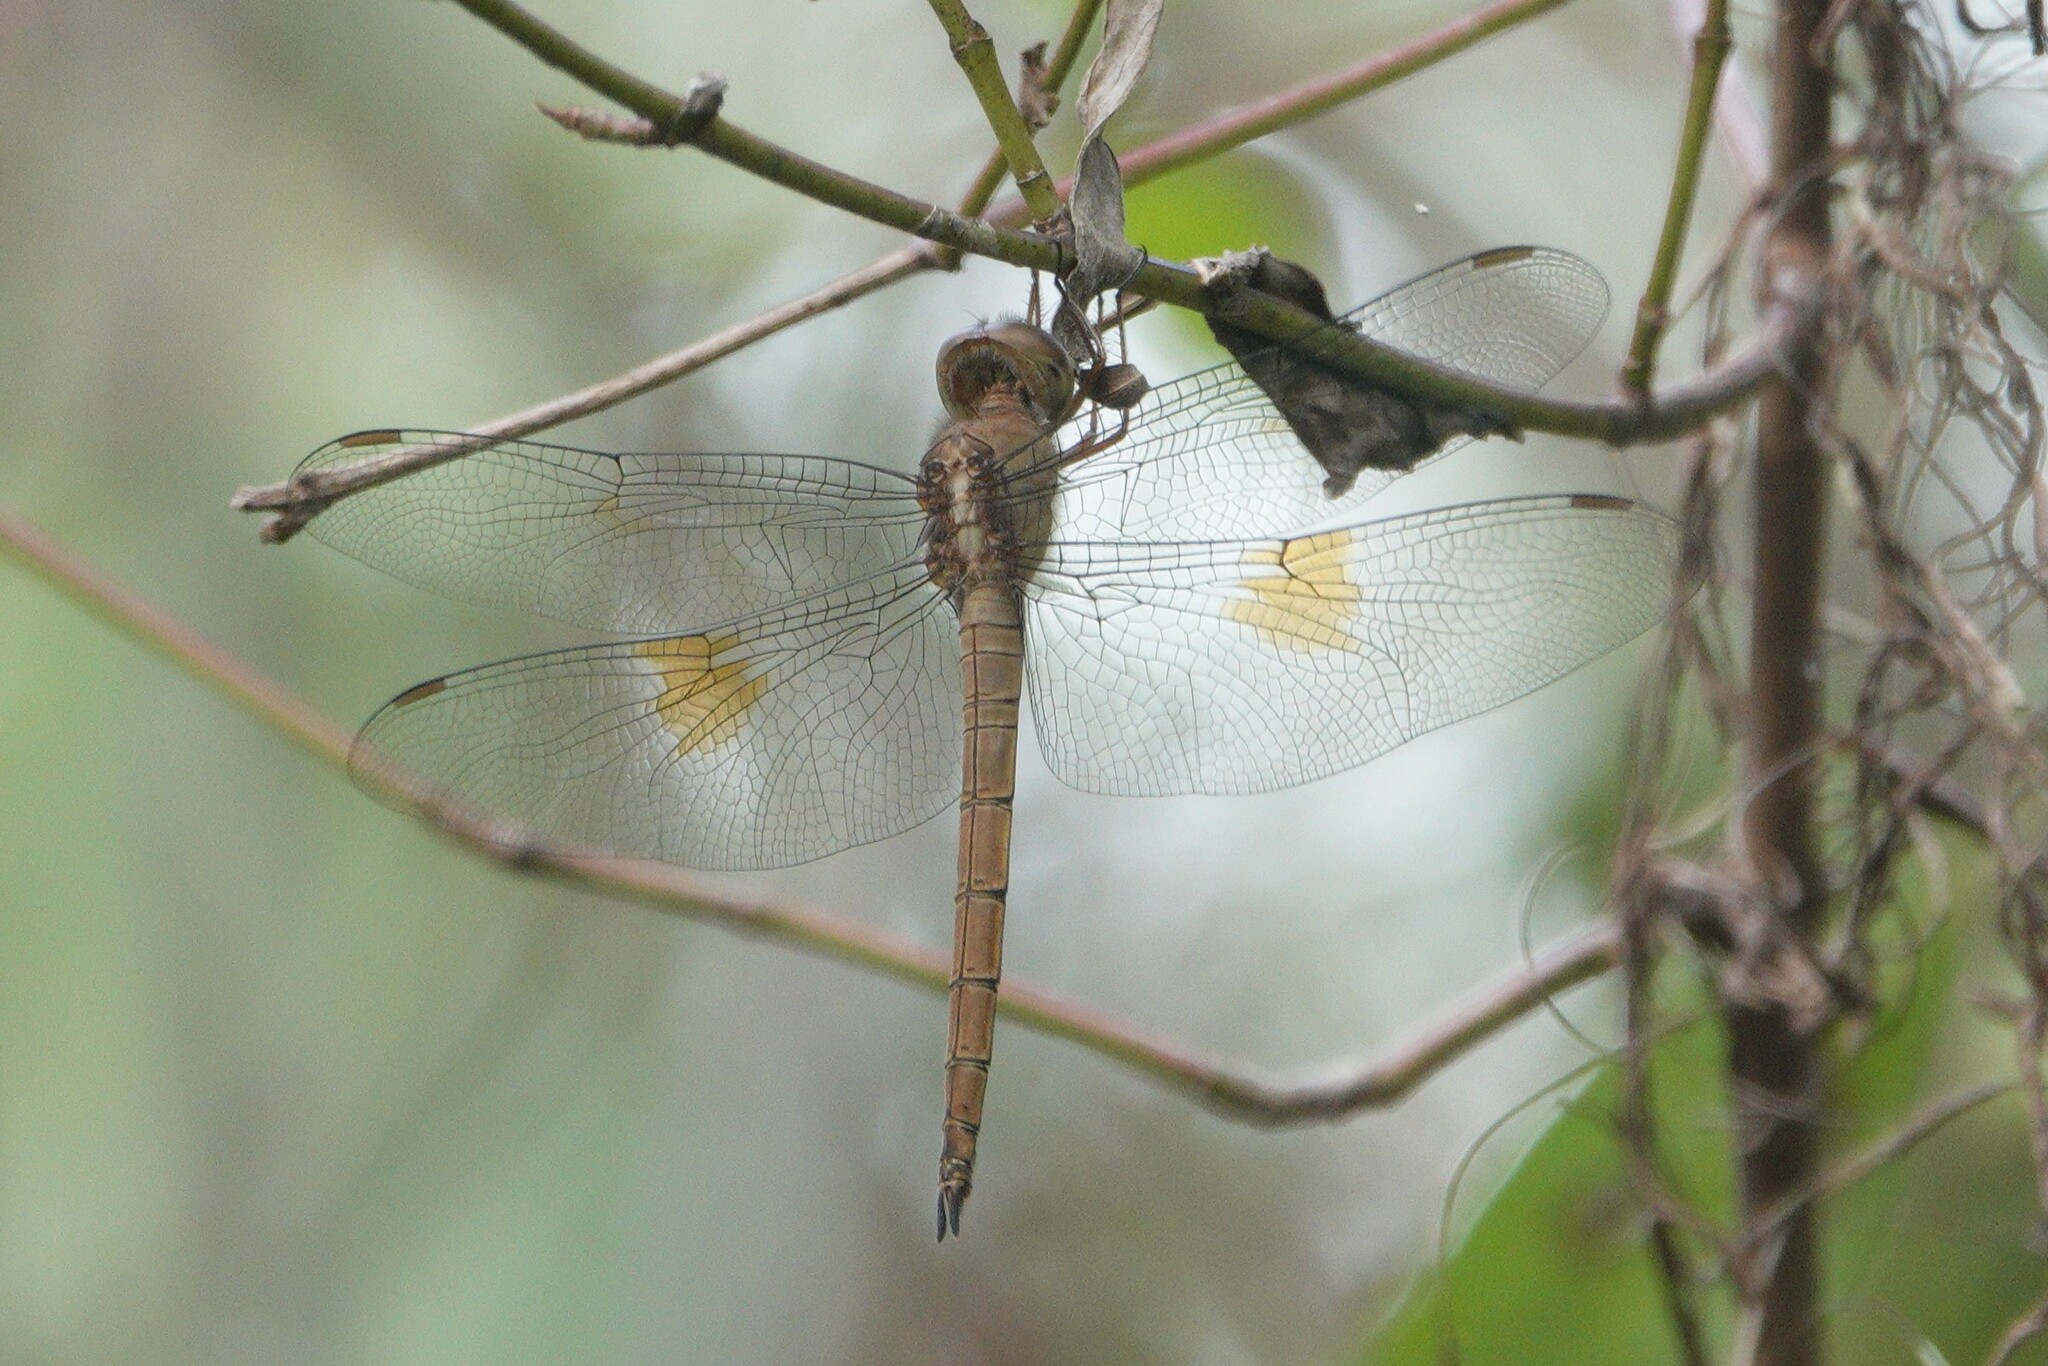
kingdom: Animalia
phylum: Arthropoda
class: Insecta
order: Odonata
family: Libellulidae
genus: Tholymis
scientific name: Tholymis citrina
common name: Evening skimmer
